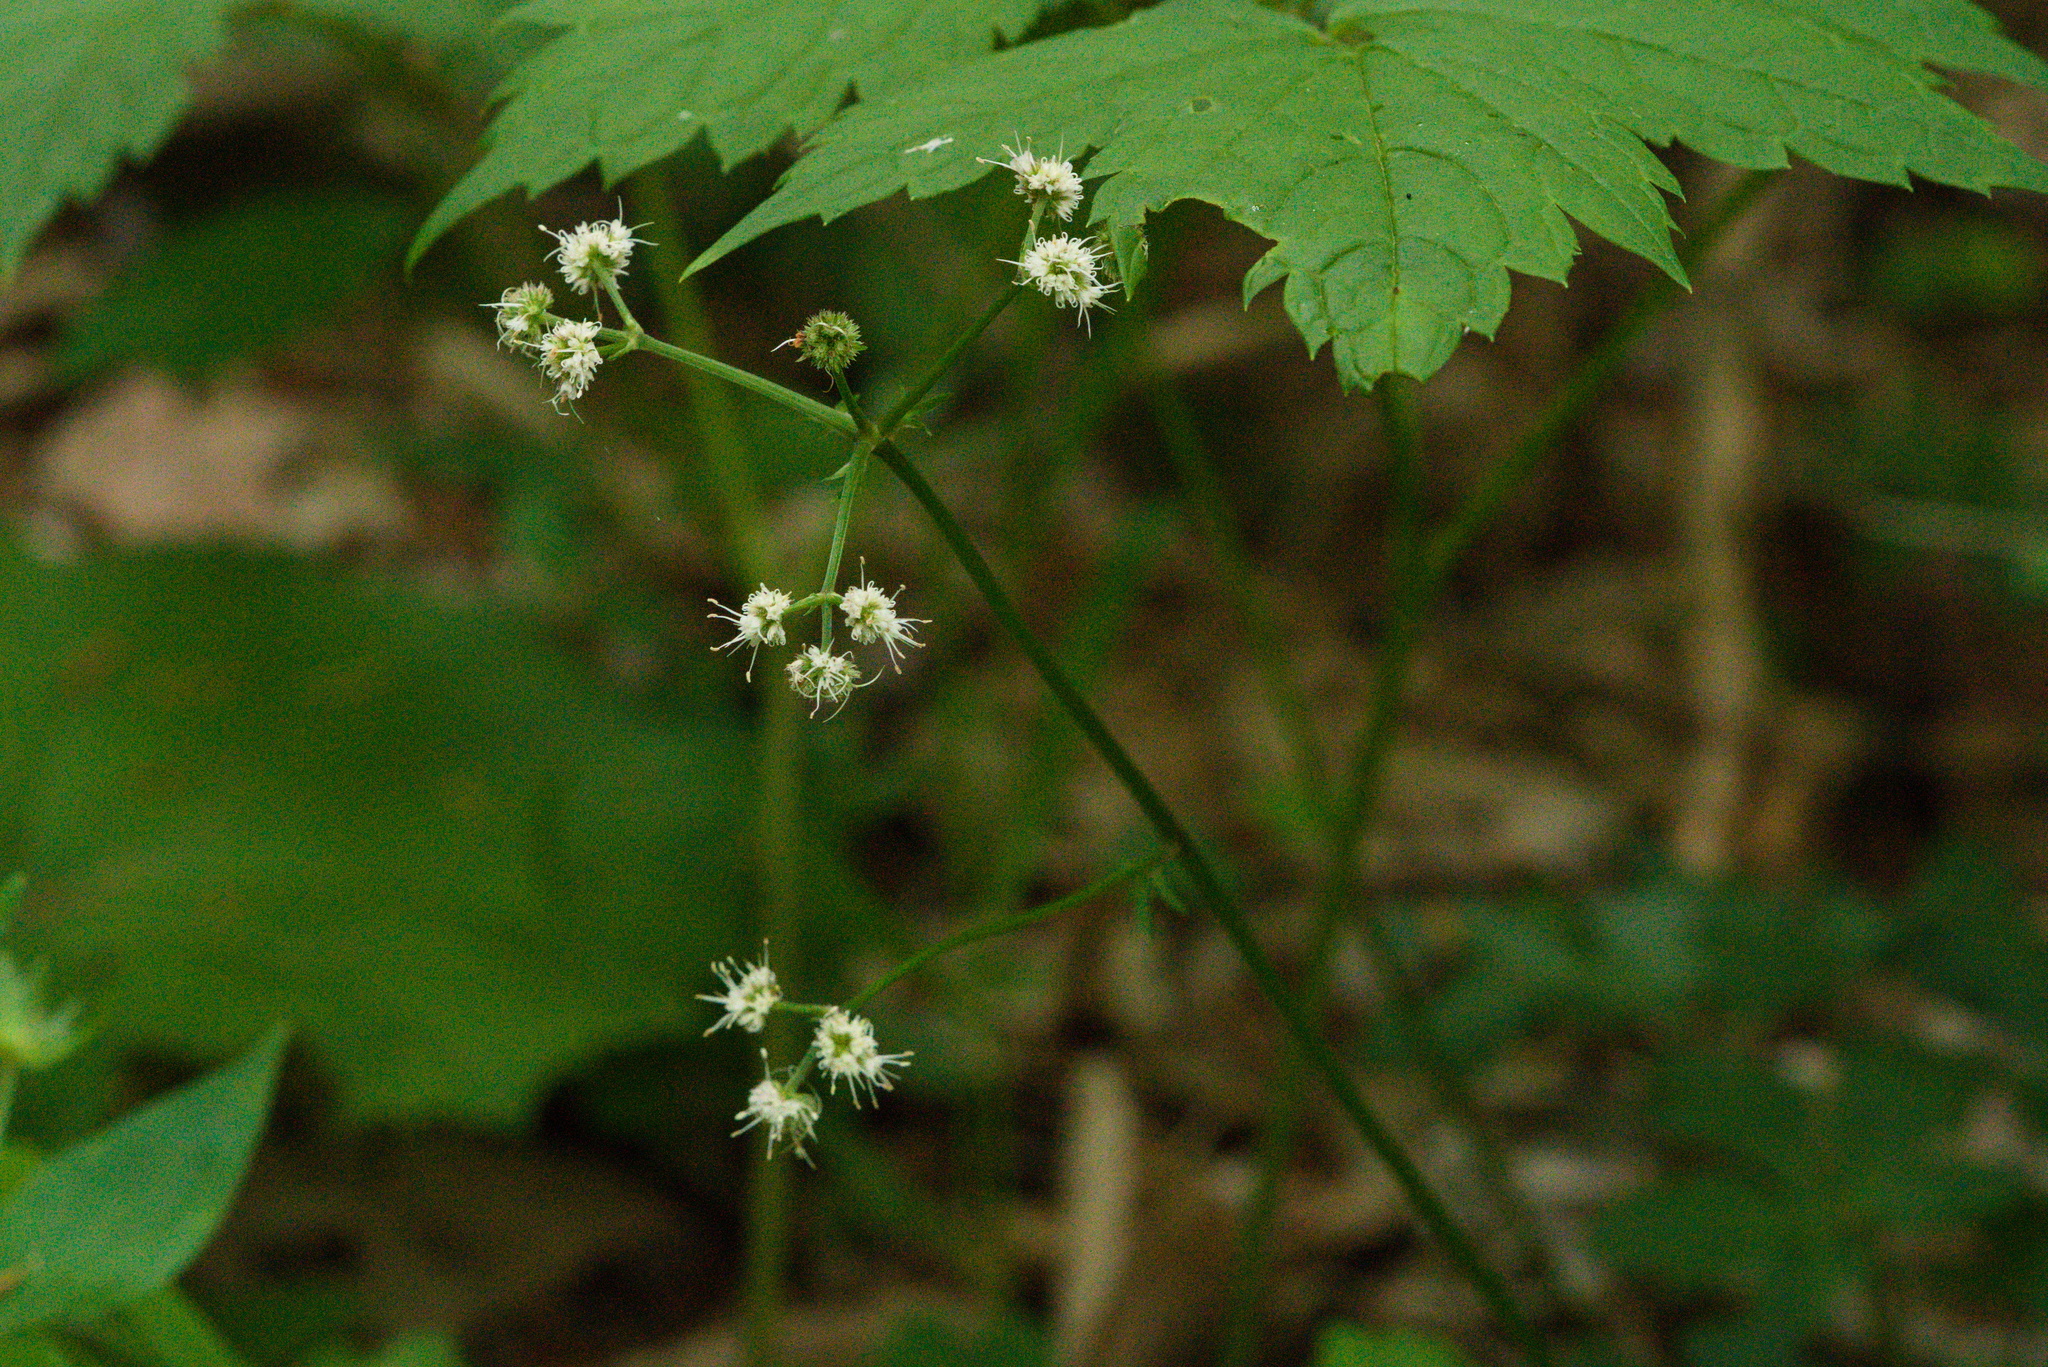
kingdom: Plantae
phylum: Tracheophyta
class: Magnoliopsida
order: Apiales
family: Apiaceae
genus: Sanicula
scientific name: Sanicula europaea
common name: Sanicle
